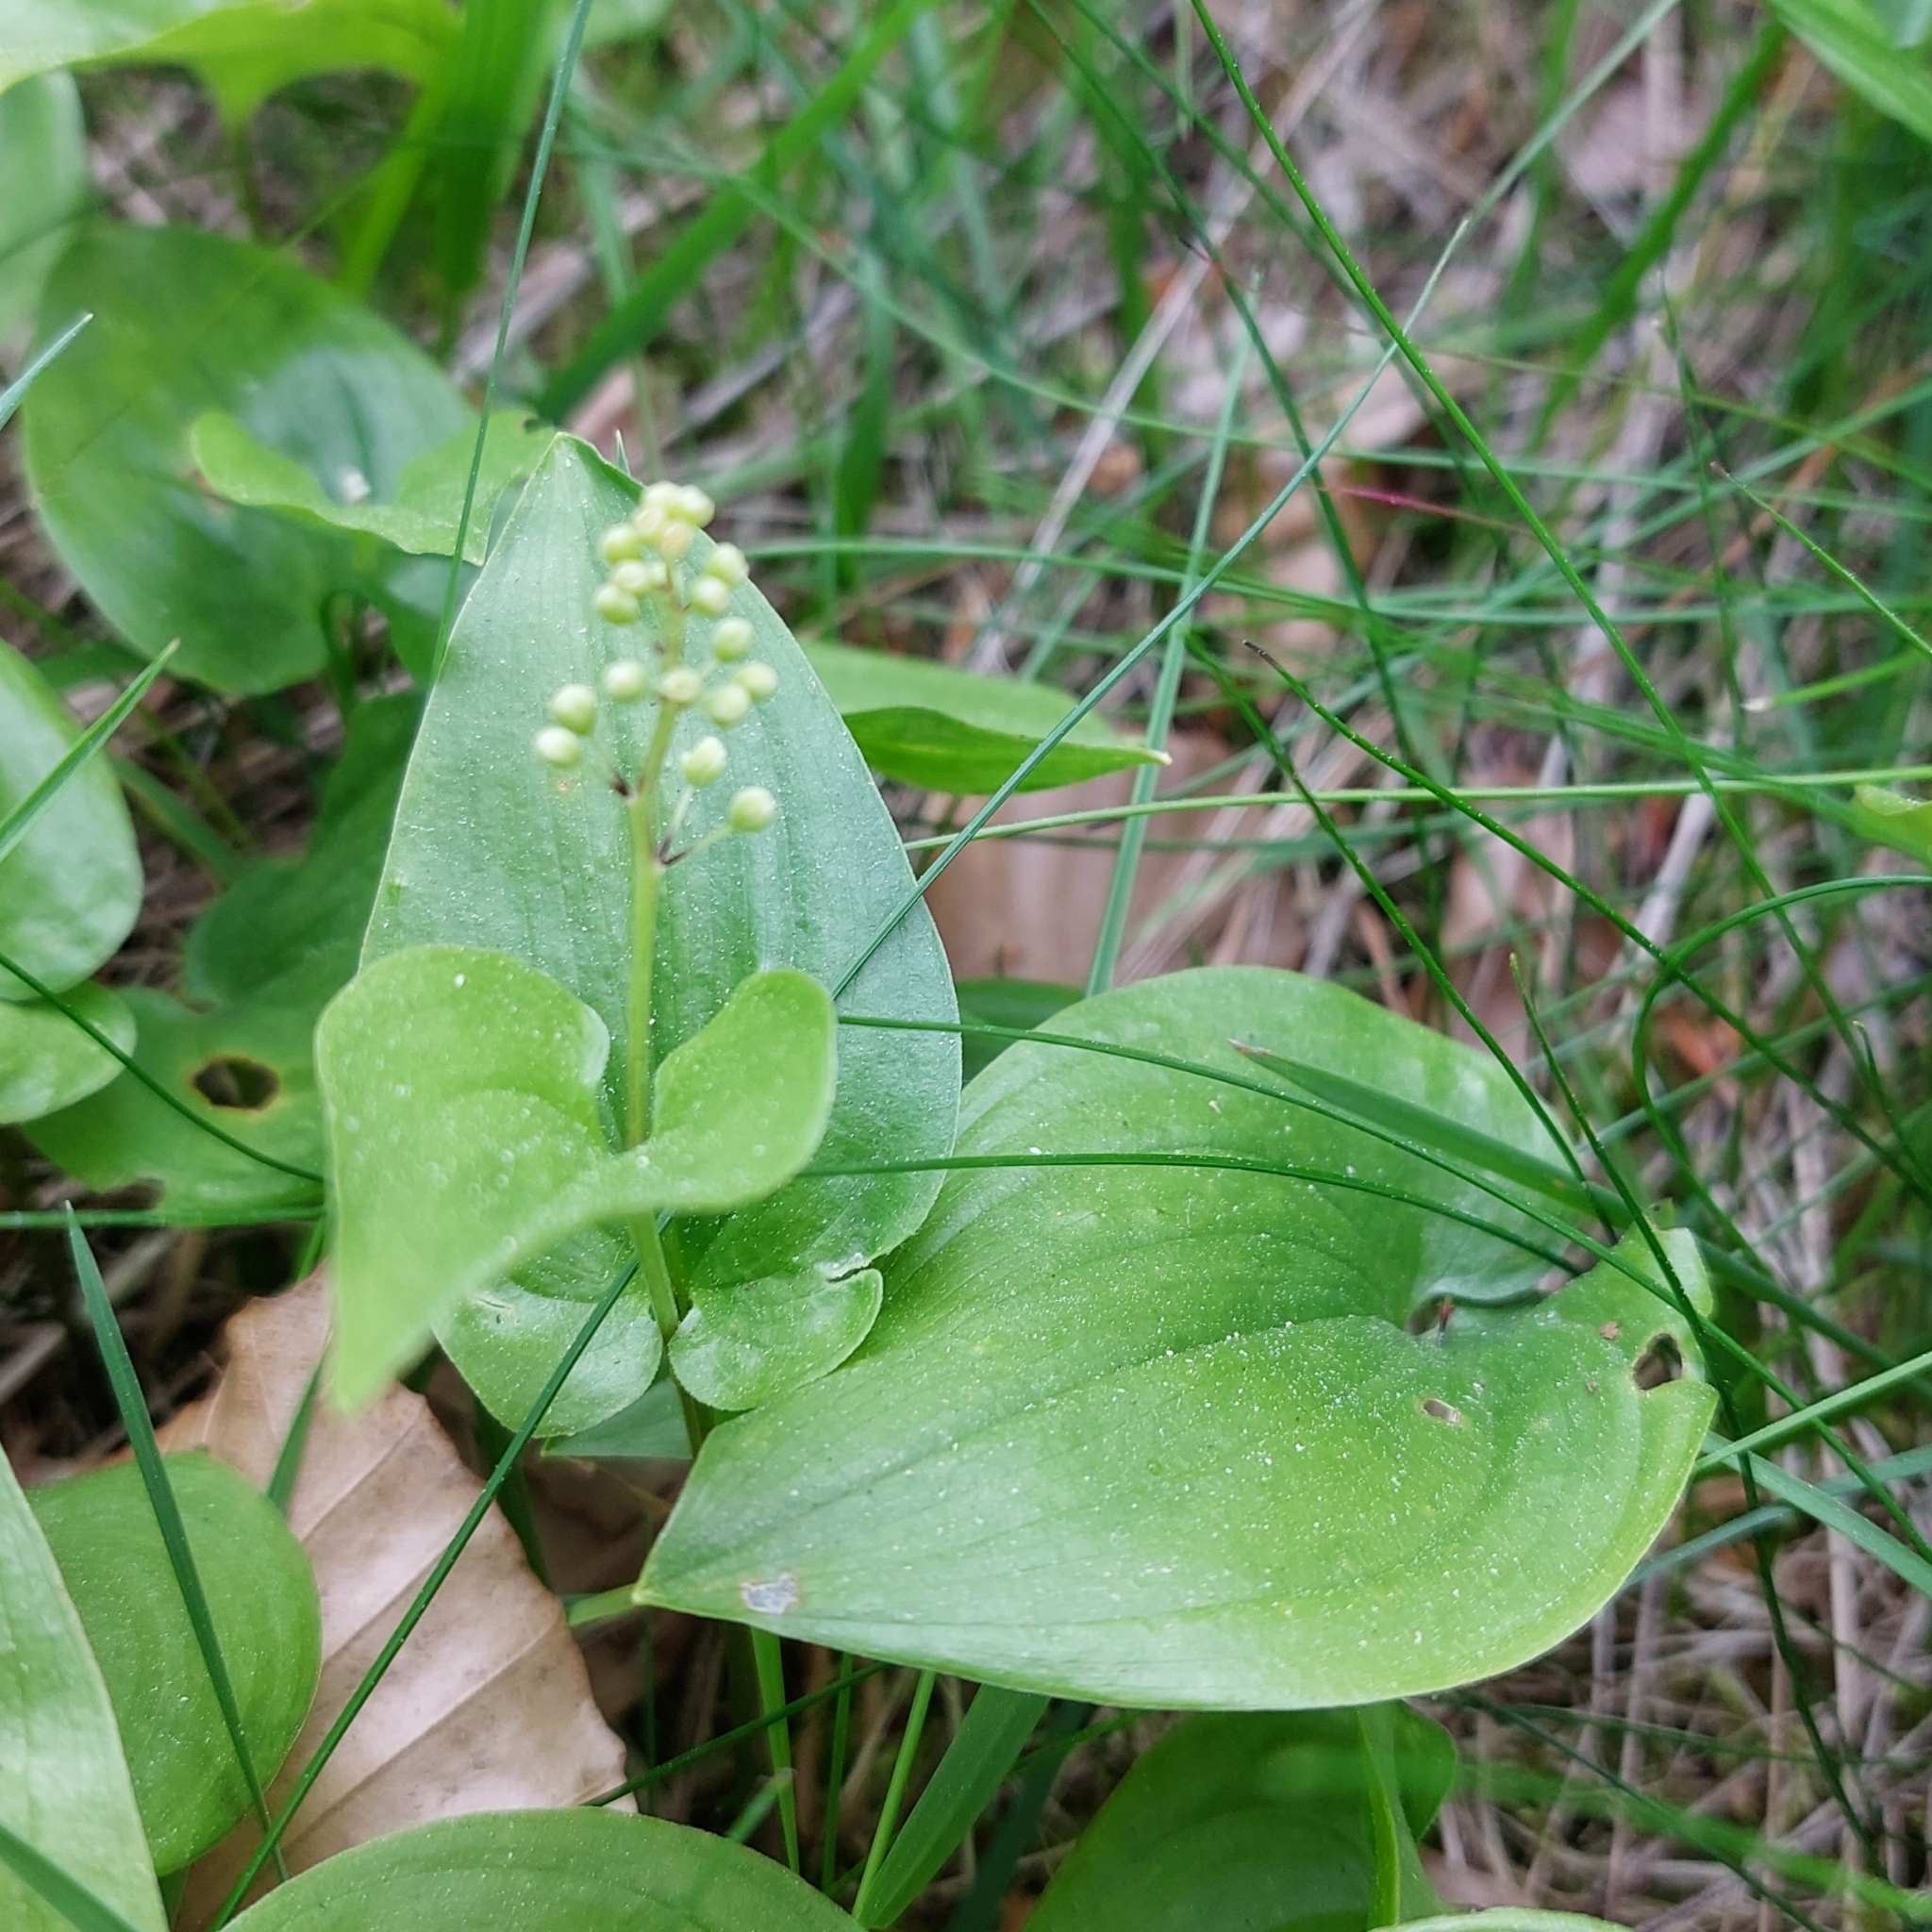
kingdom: Plantae
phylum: Tracheophyta
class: Liliopsida
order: Asparagales
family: Asparagaceae
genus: Maianthemum
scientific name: Maianthemum bifolium
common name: May lily
